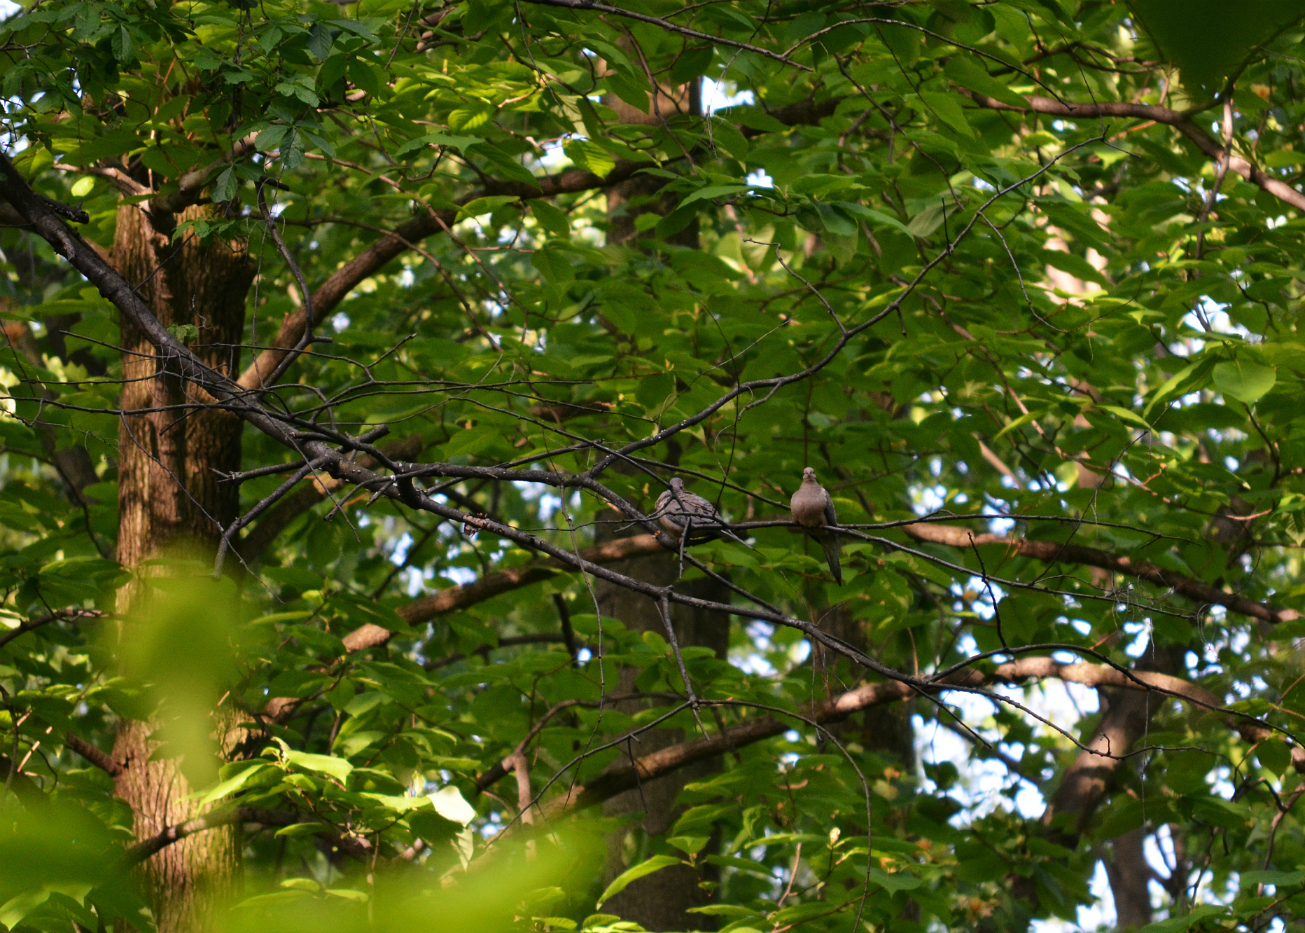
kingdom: Animalia
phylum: Chordata
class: Aves
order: Columbiformes
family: Columbidae
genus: Zenaida
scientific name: Zenaida macroura
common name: Mourning dove
